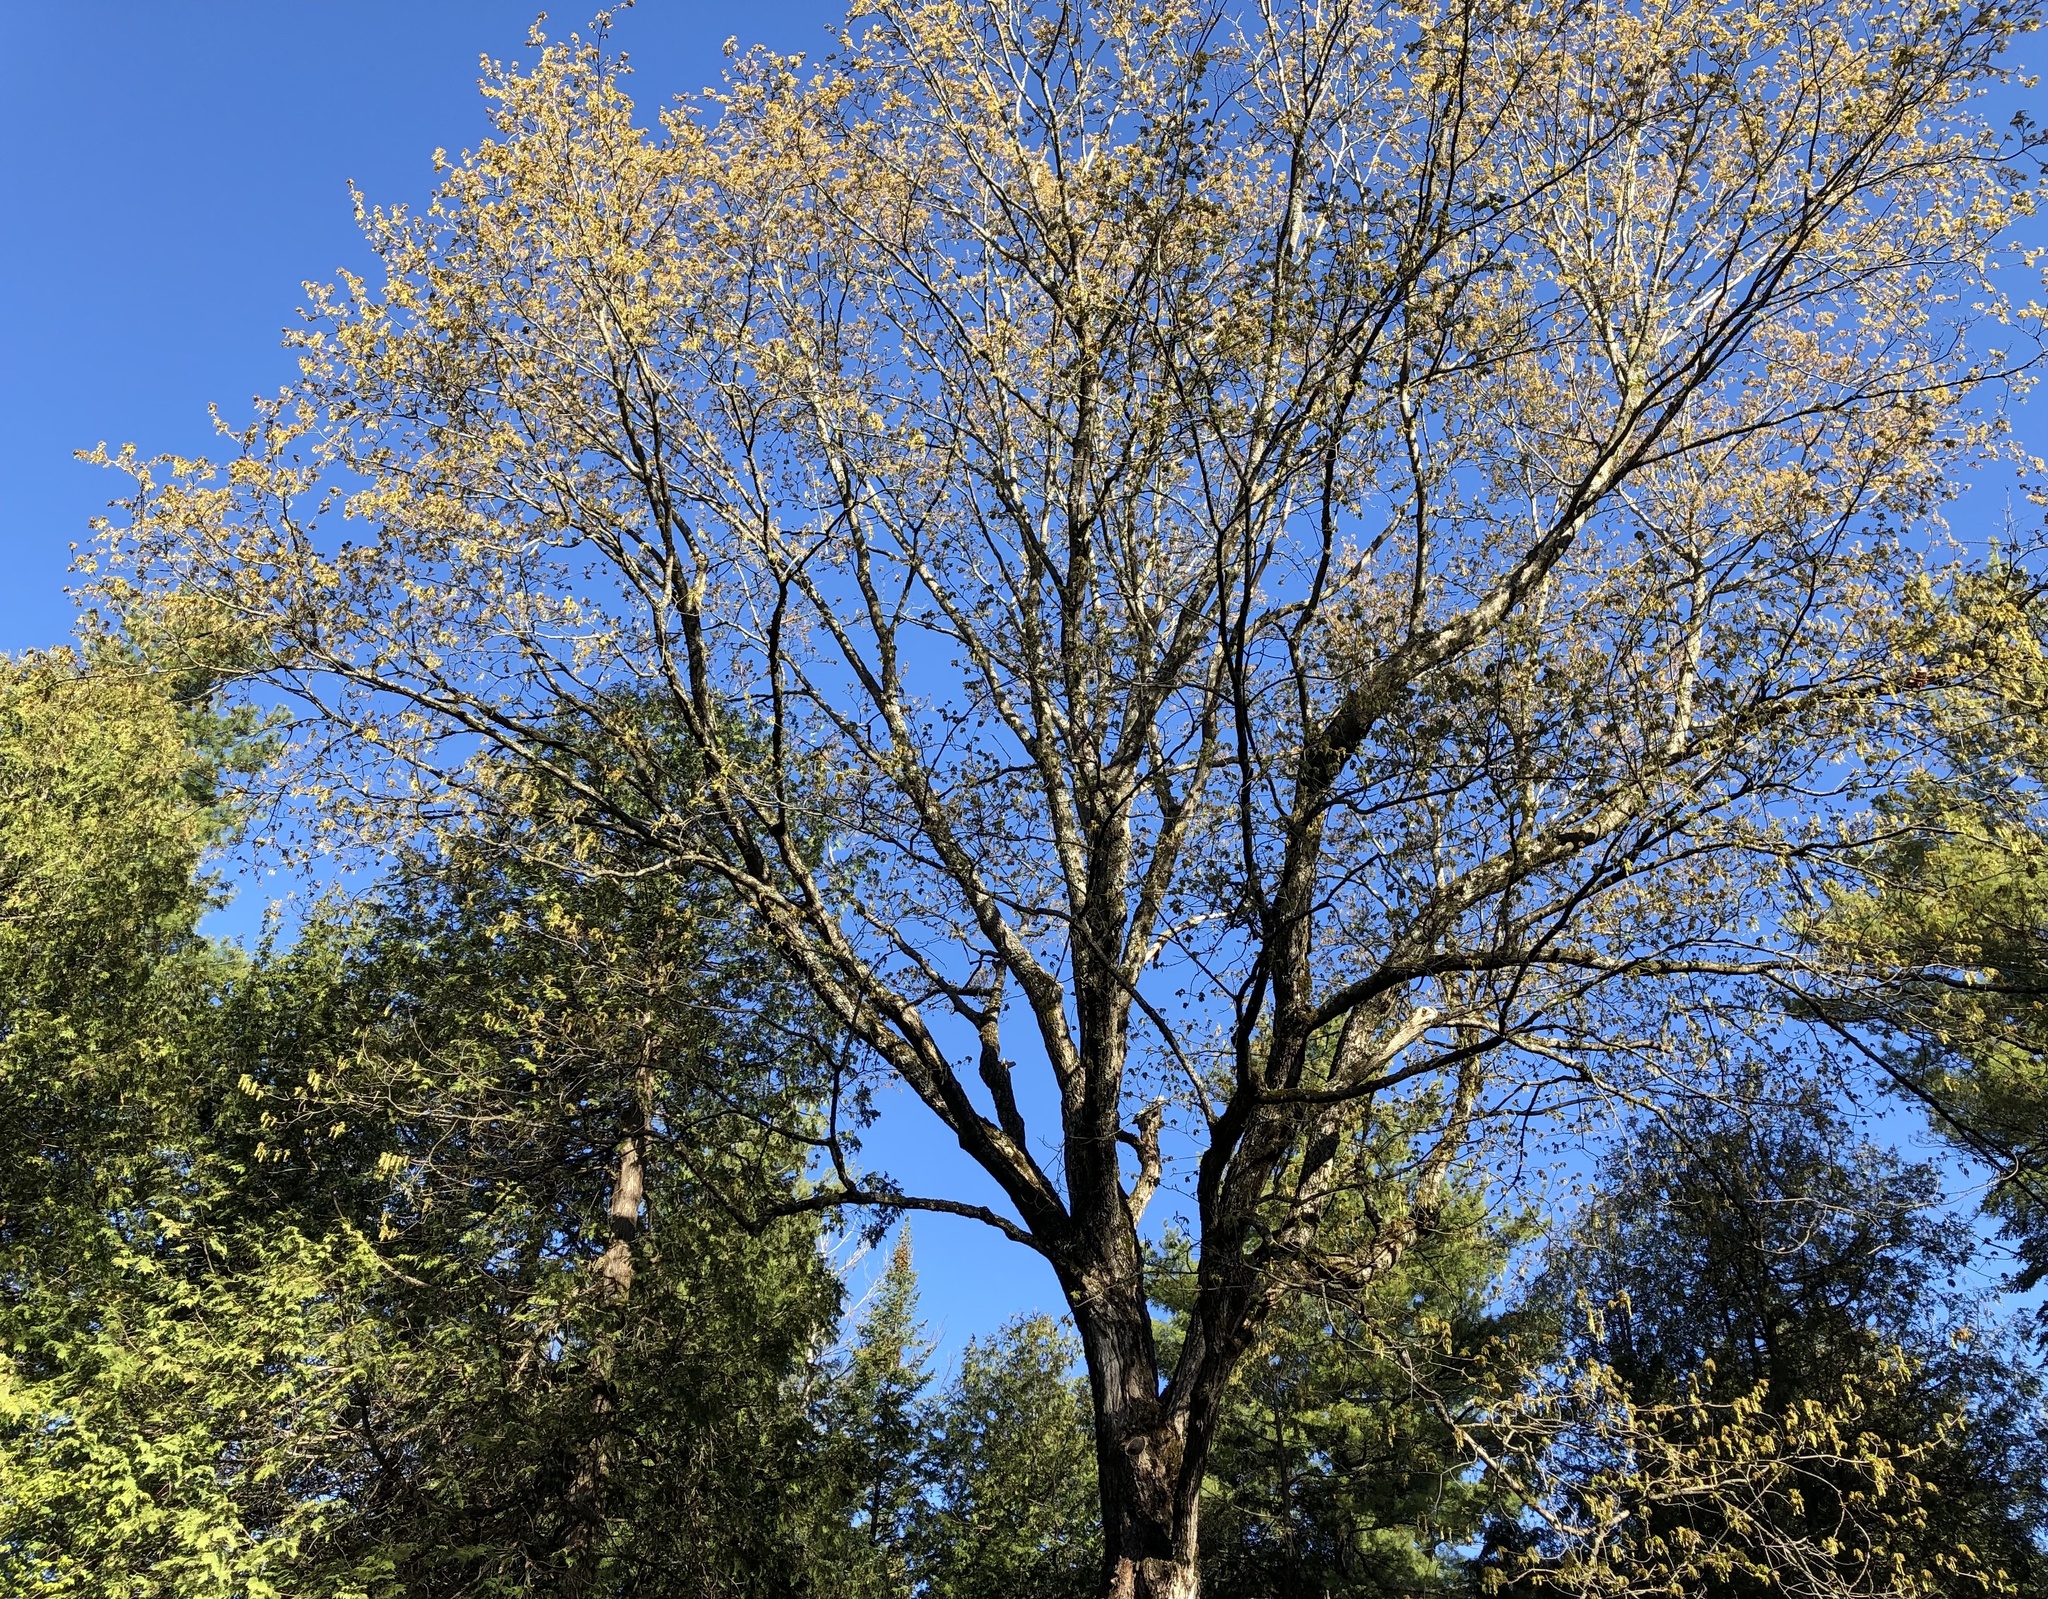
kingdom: Plantae
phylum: Tracheophyta
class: Magnoliopsida
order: Sapindales
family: Sapindaceae
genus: Acer
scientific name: Acer saccharum
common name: Sugar maple
